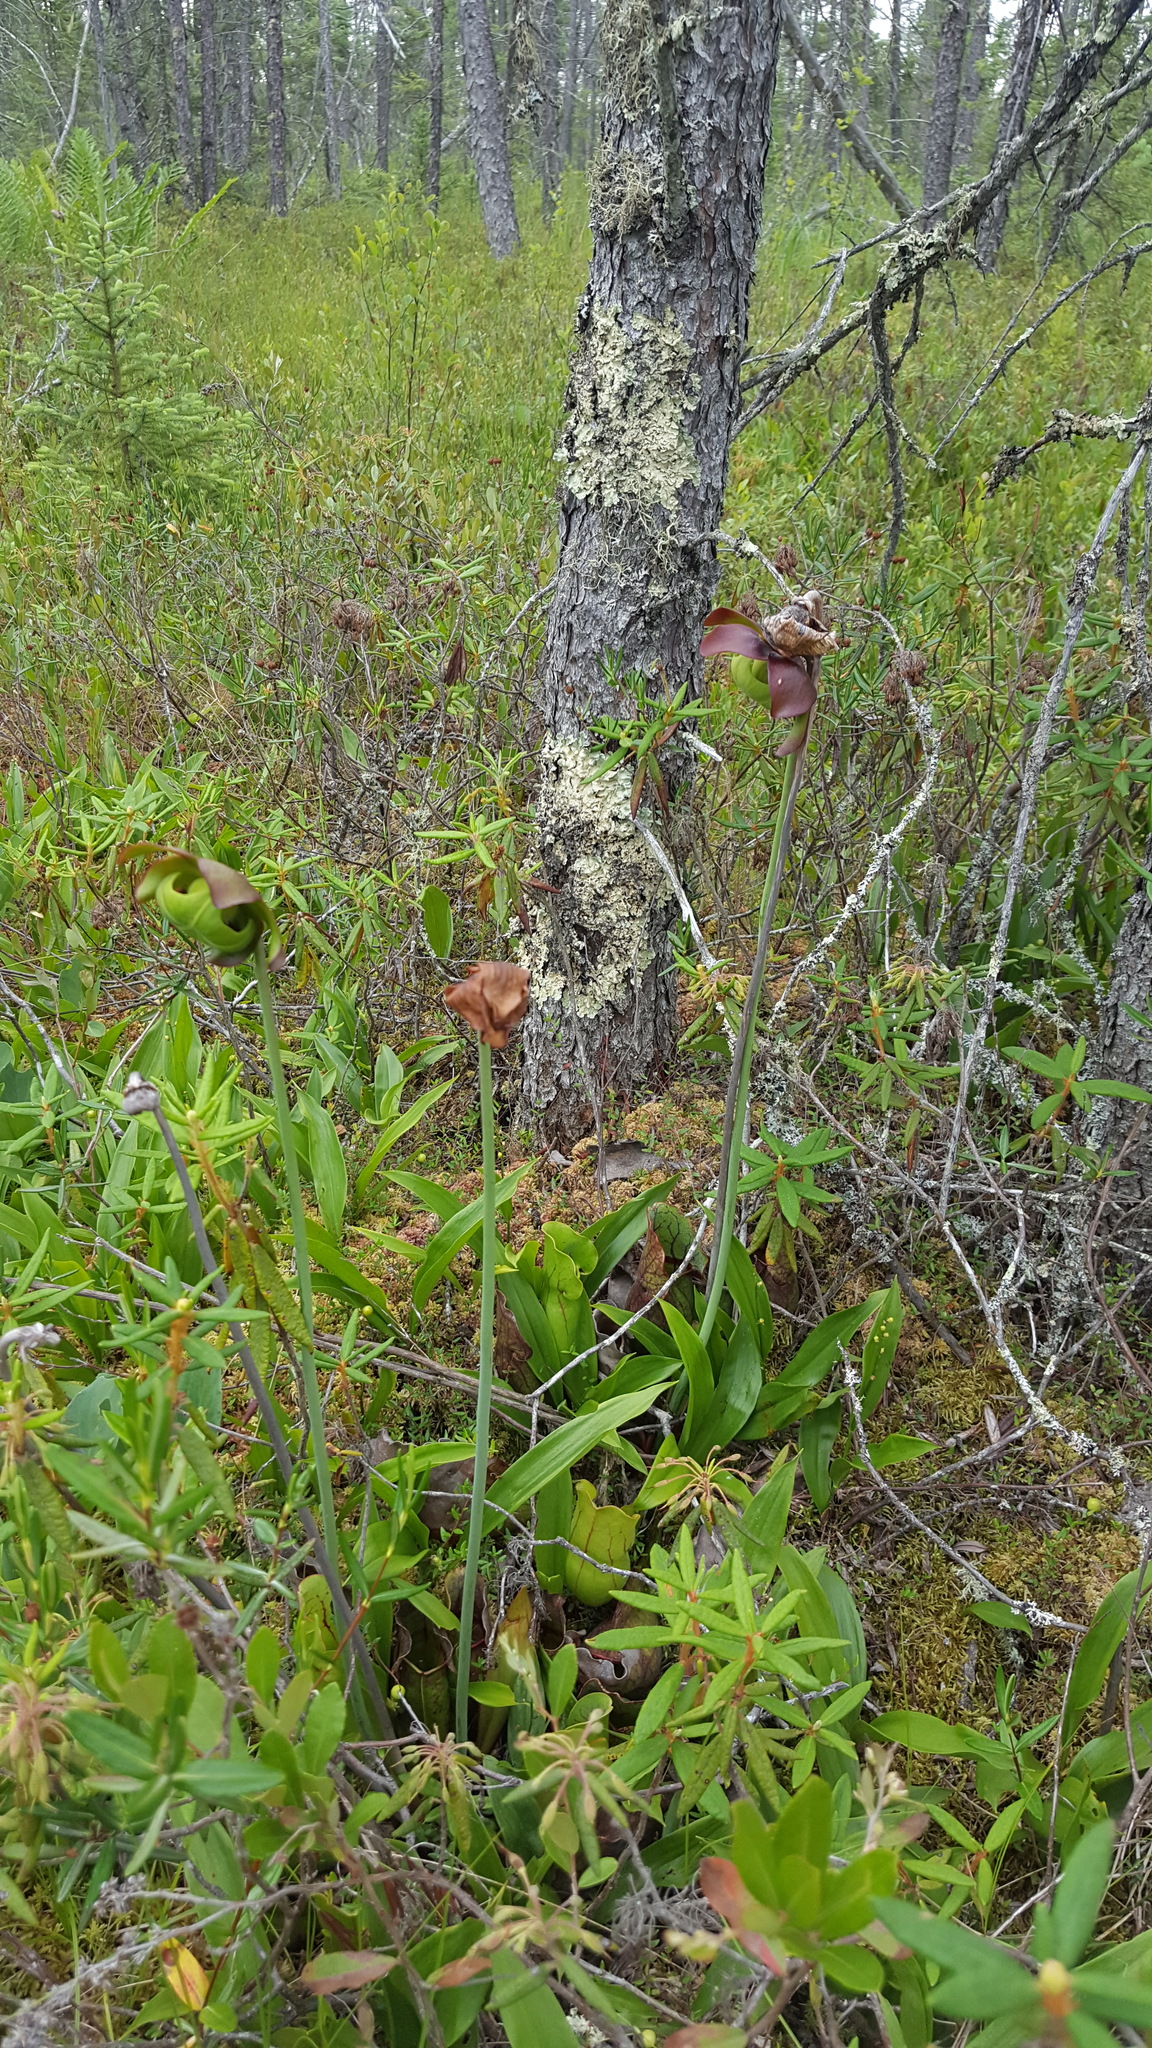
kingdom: Plantae
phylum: Tracheophyta
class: Magnoliopsida
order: Ericales
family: Sarraceniaceae
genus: Sarracenia
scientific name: Sarracenia purpurea
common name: Pitcherplant
